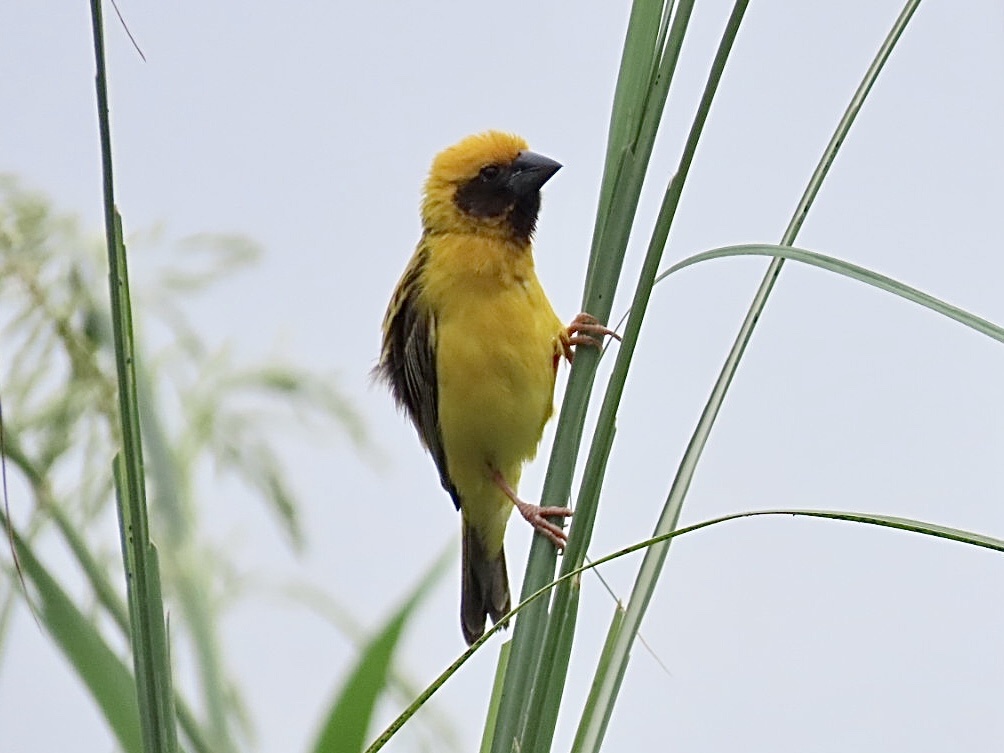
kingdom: Animalia
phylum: Chordata
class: Aves
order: Passeriformes
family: Ploceidae
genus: Ploceus
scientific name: Ploceus hypoxanthus
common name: Asian golden weaver
